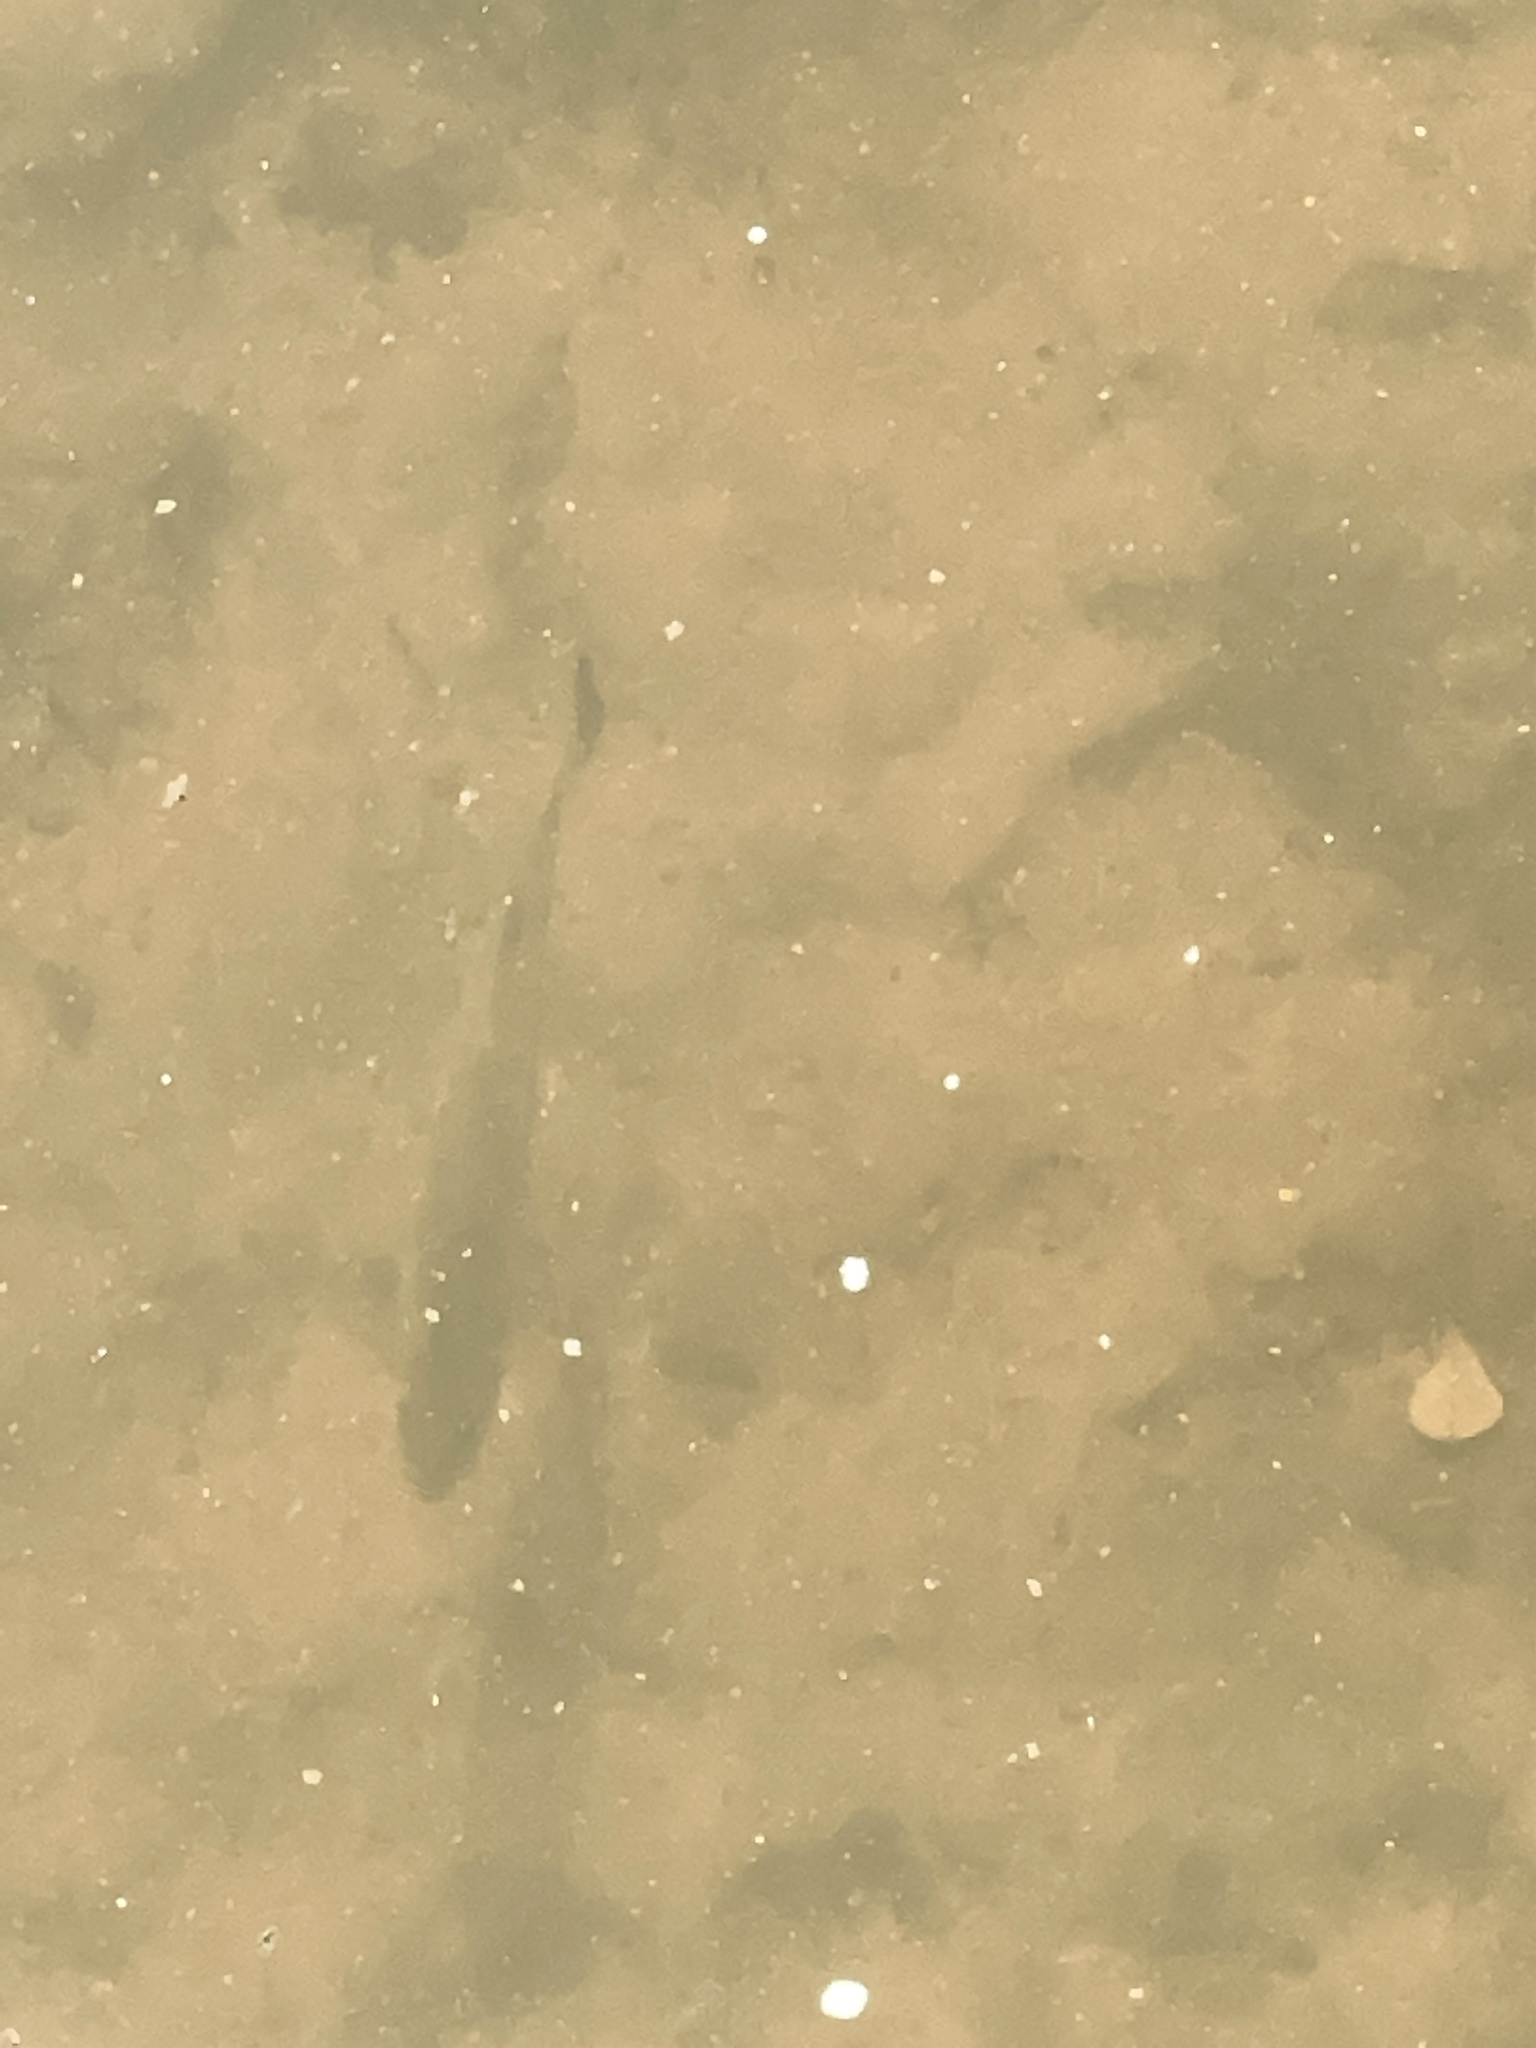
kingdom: Animalia
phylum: Chordata
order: Perciformes
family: Centrarchidae
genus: Micropterus
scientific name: Micropterus salmoides
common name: Largemouth bass
